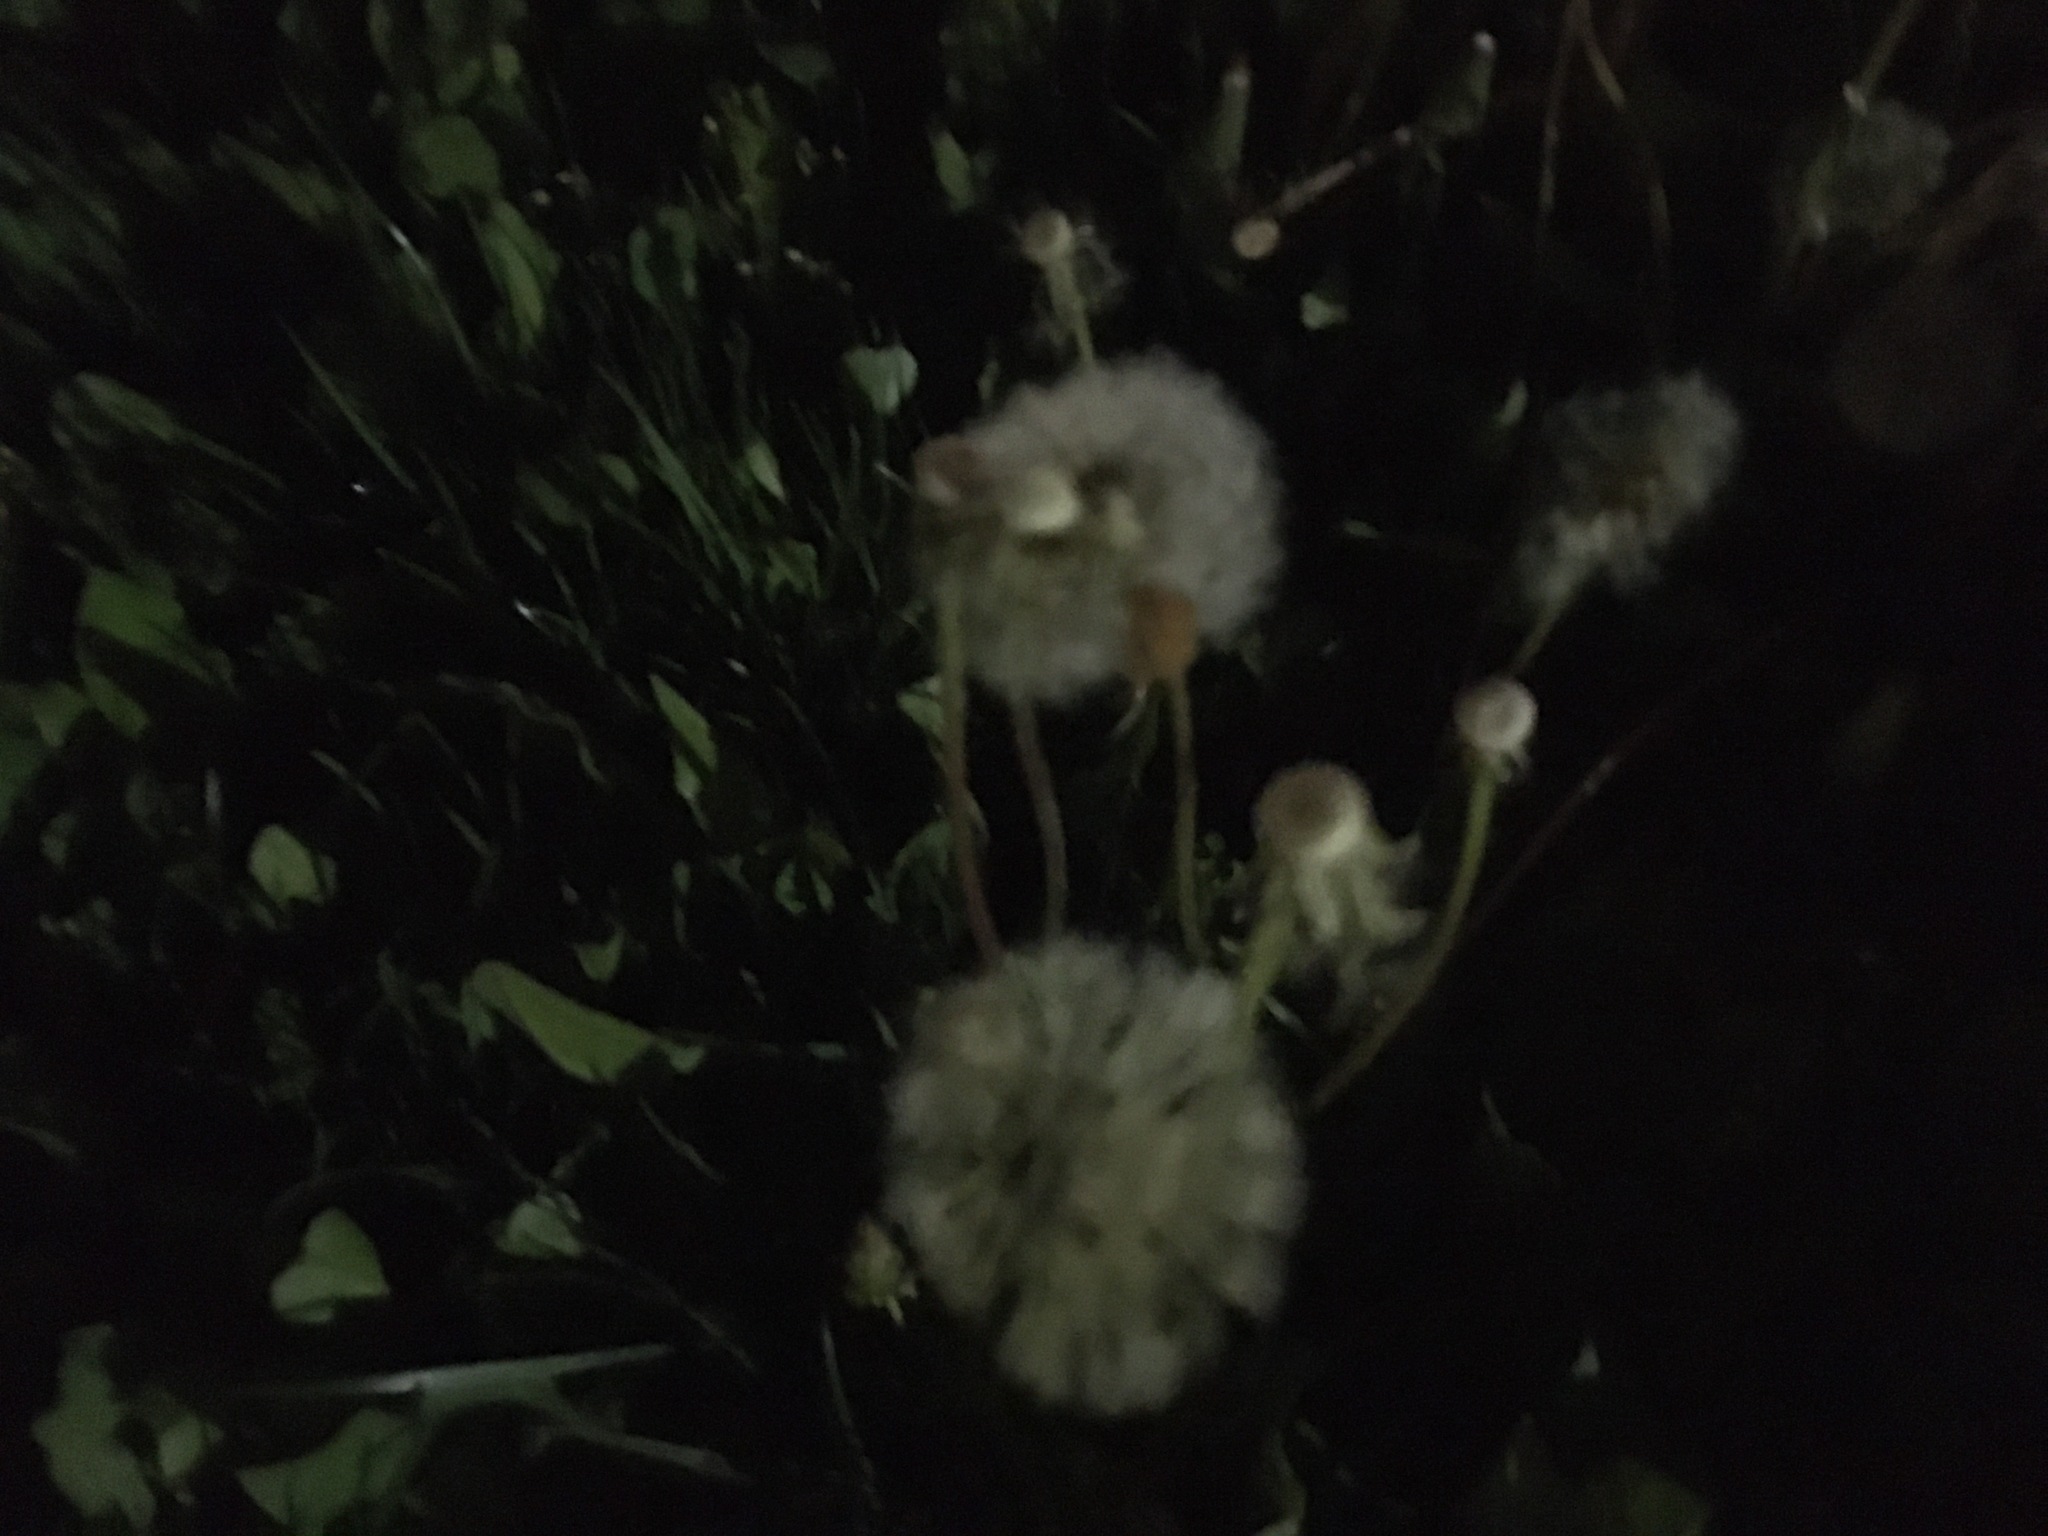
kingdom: Plantae
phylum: Tracheophyta
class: Magnoliopsida
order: Asterales
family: Asteraceae
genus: Taraxacum
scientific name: Taraxacum officinale
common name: Common dandelion
